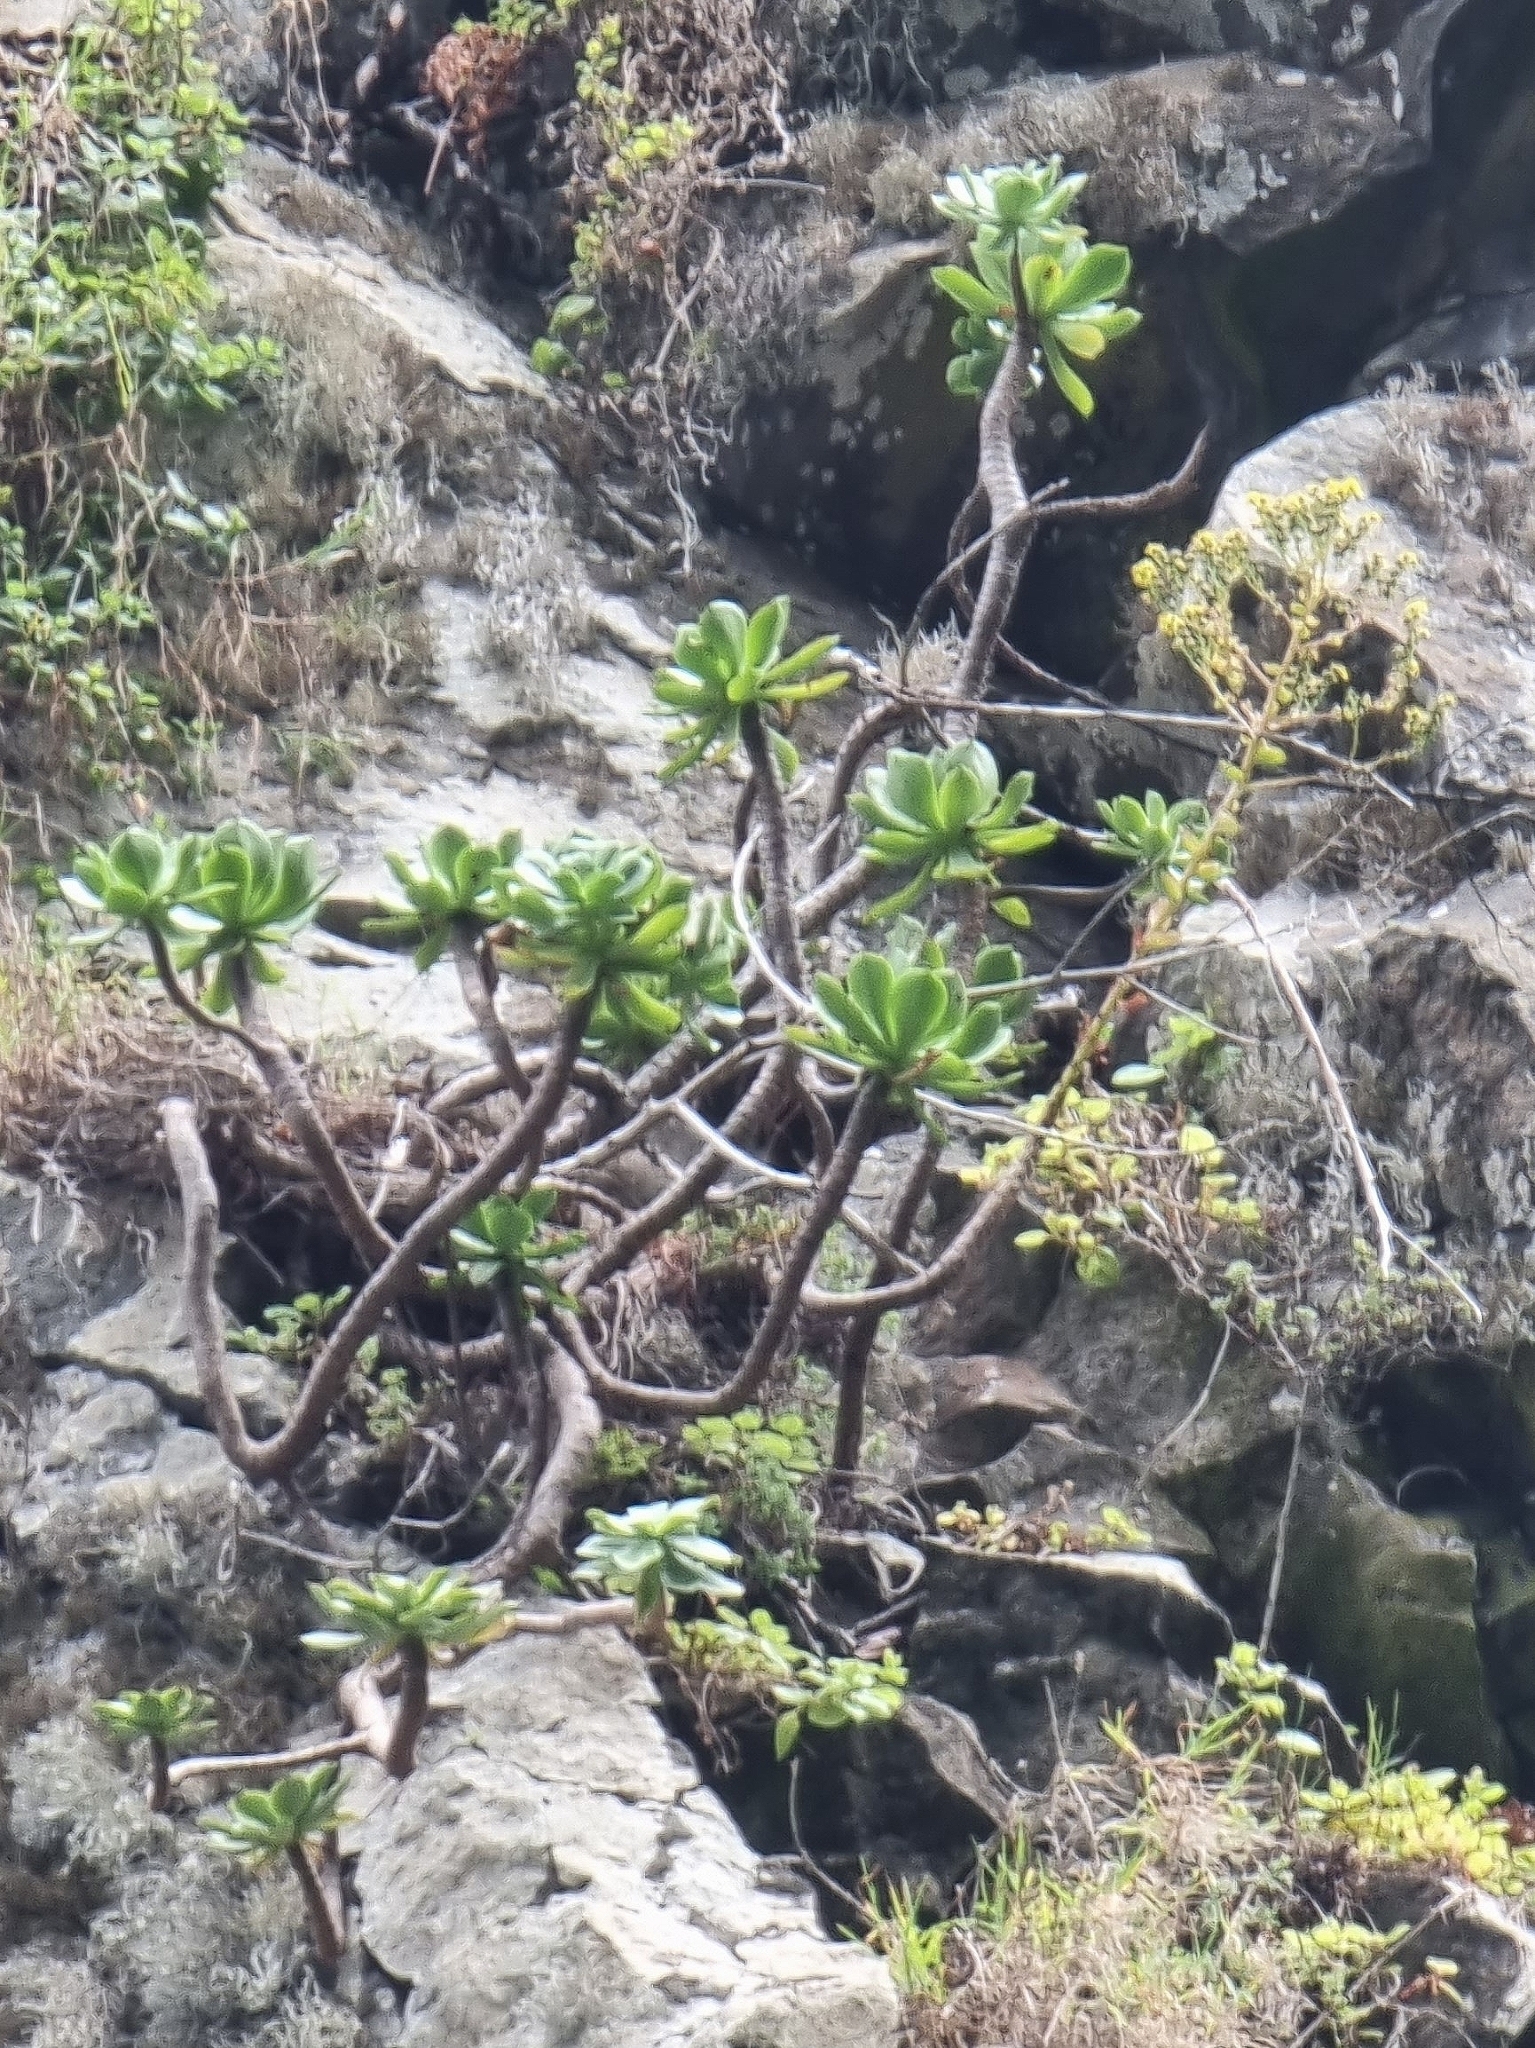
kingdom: Plantae
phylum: Tracheophyta
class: Magnoliopsida
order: Saxifragales
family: Crassulaceae
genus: Aeonium
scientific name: Aeonium glutinosum
